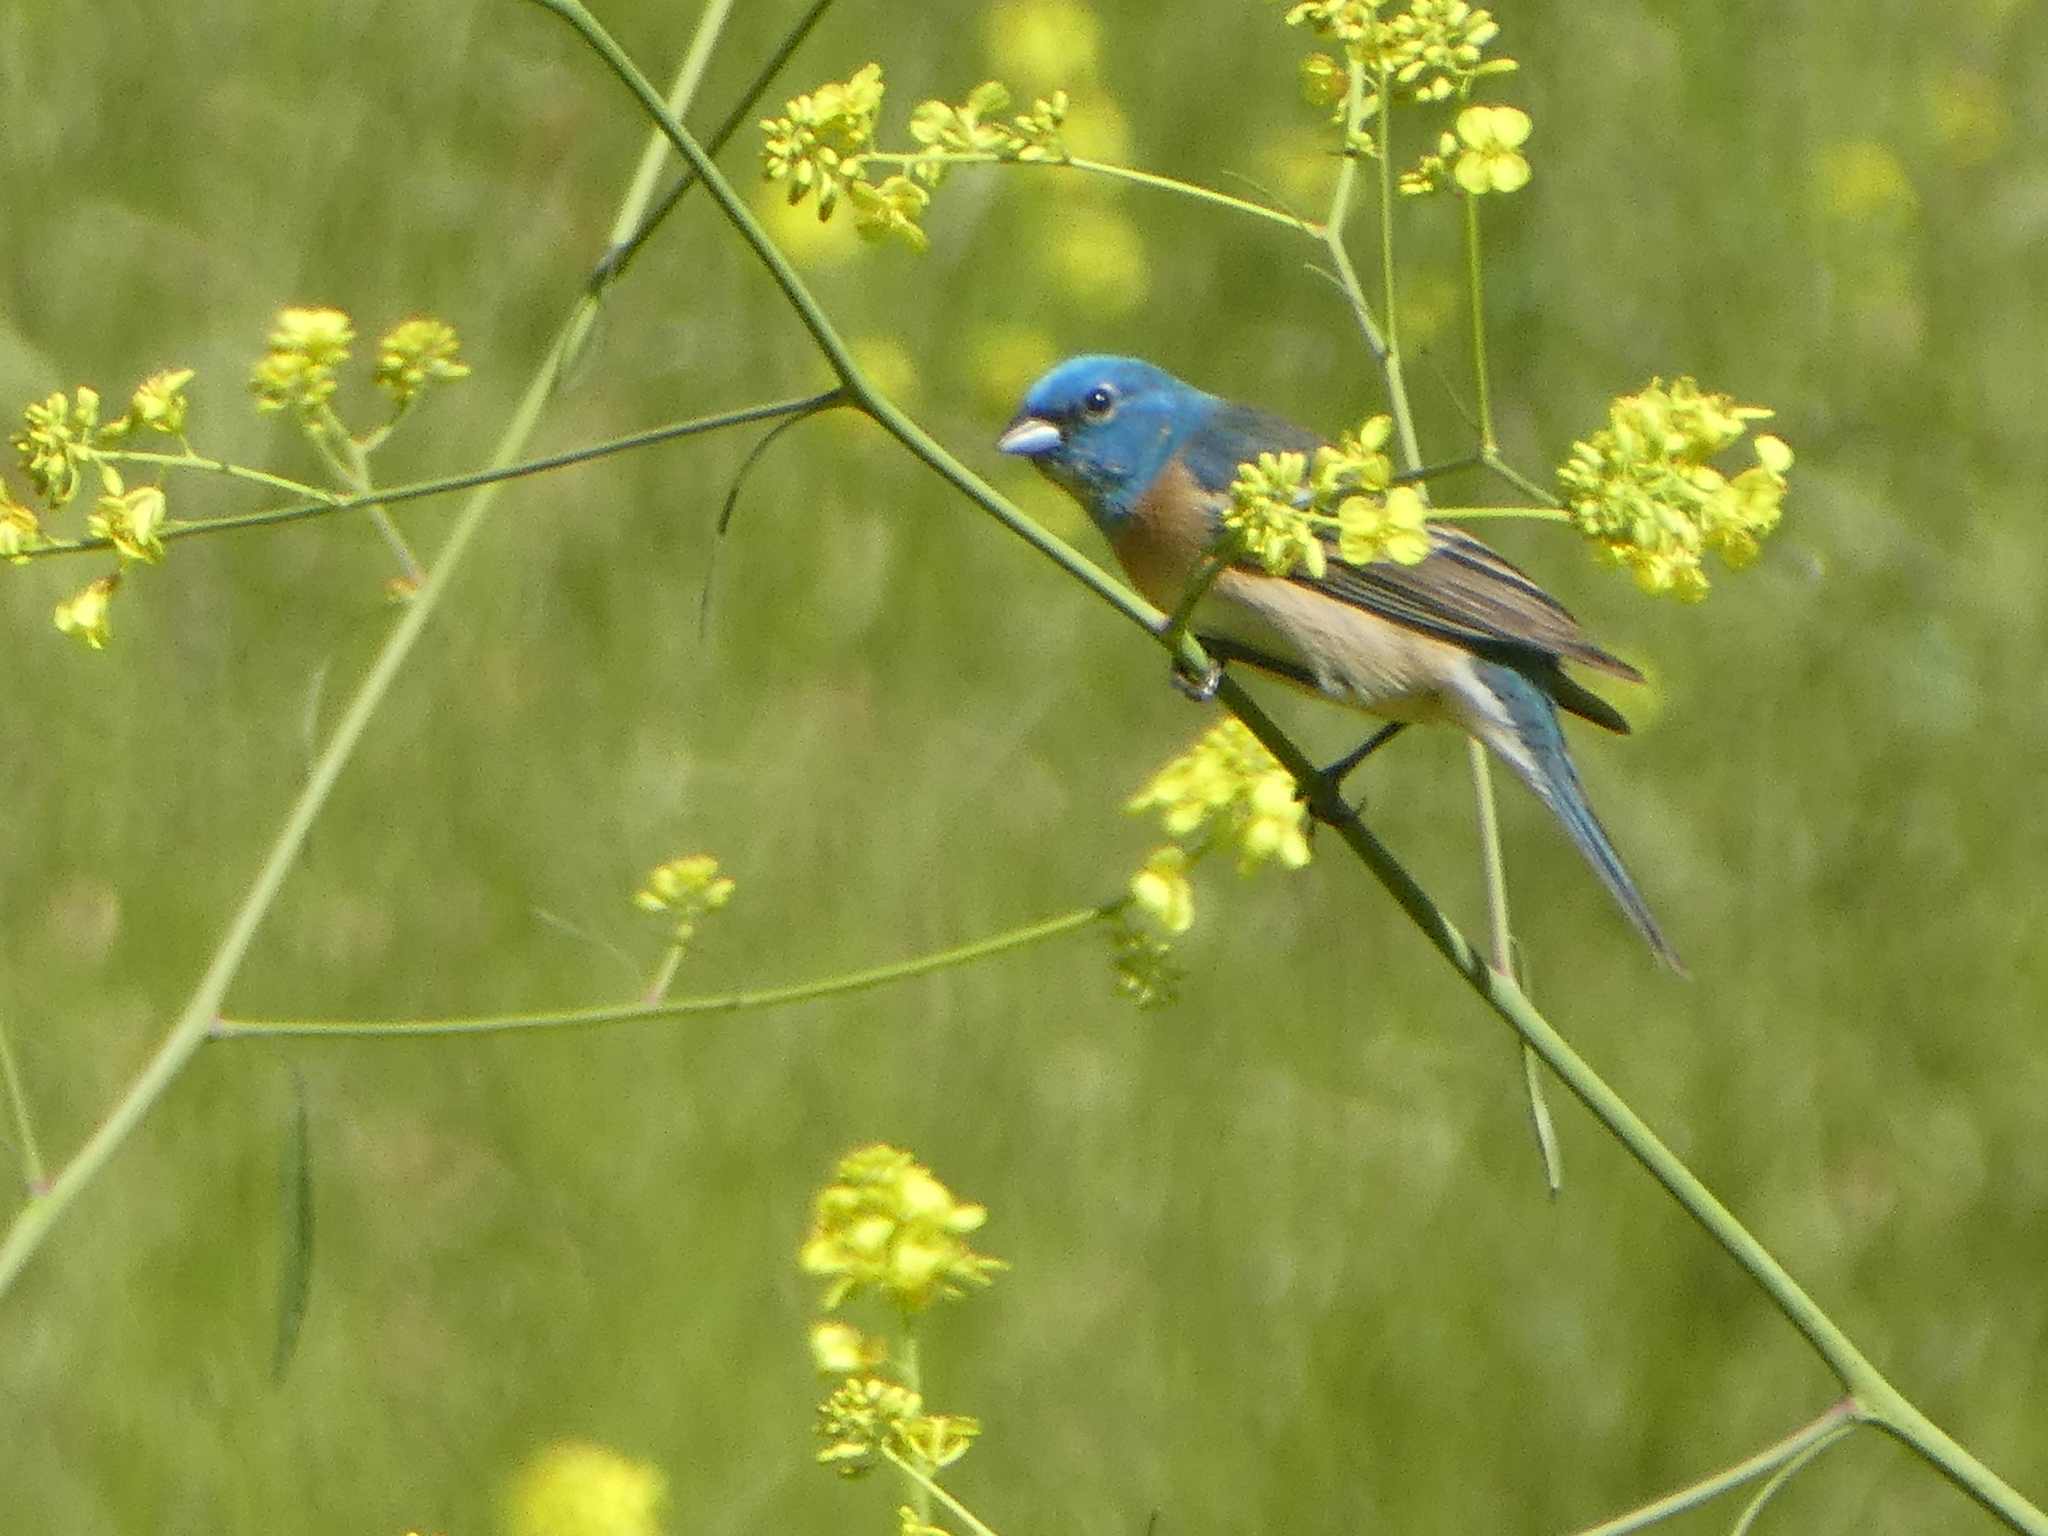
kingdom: Animalia
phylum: Chordata
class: Aves
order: Passeriformes
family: Cardinalidae
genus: Passerina
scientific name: Passerina amoena
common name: Lazuli bunting
